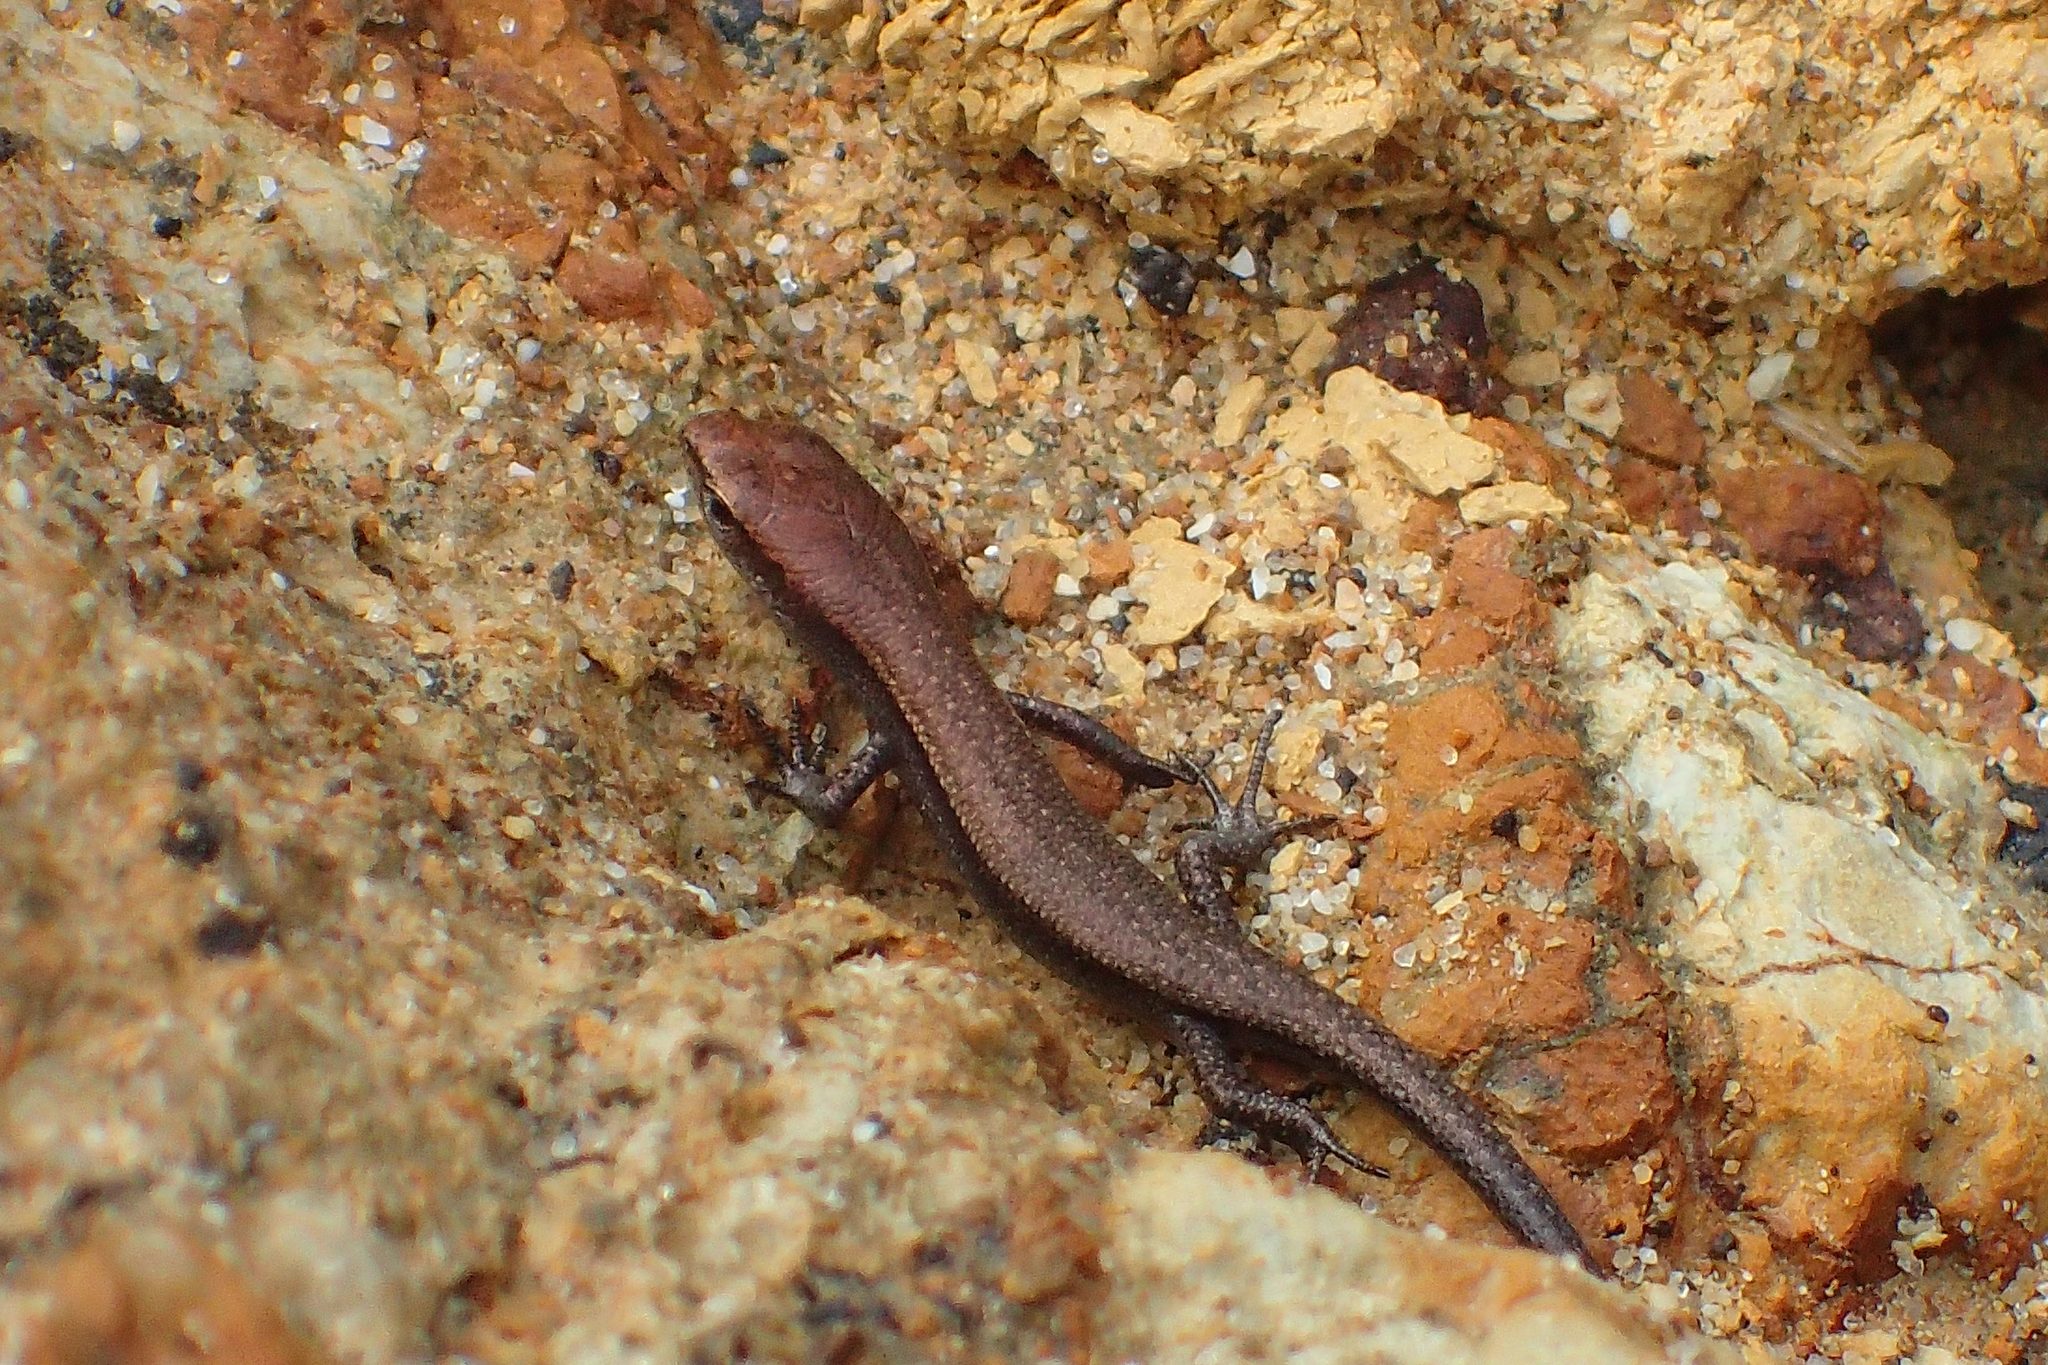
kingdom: Animalia
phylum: Chordata
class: Squamata
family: Scincidae
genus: Lampropholis
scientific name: Lampropholis delicata
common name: Plague skink
